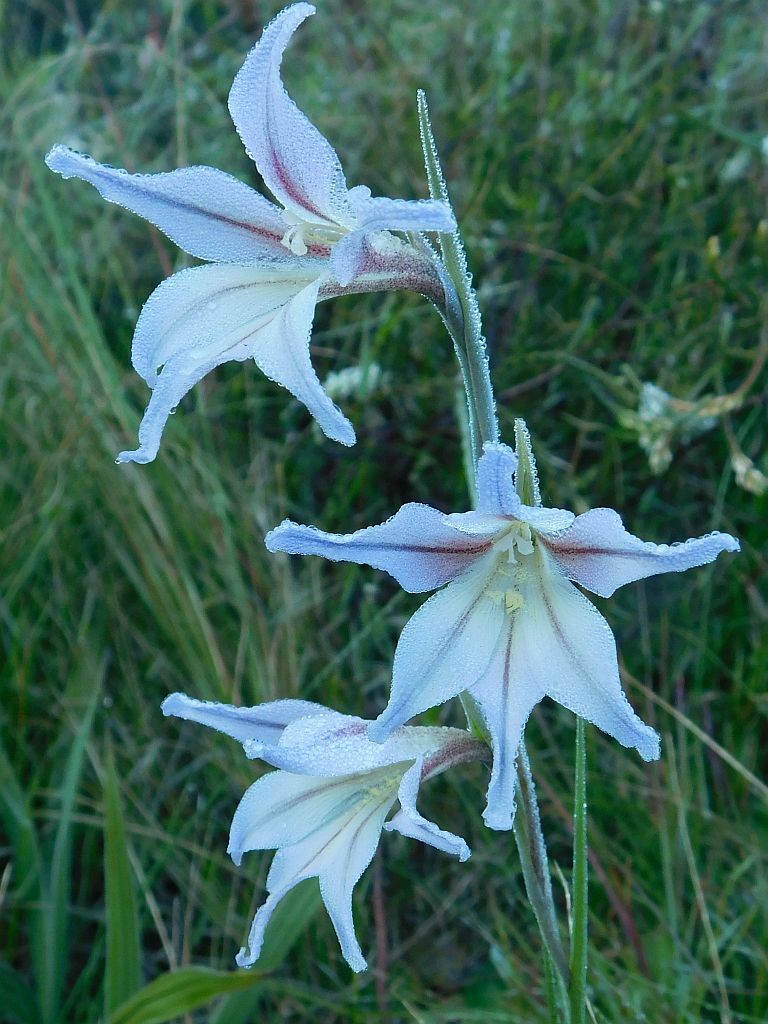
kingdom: Plantae
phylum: Tracheophyta
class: Liliopsida
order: Asparagales
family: Iridaceae
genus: Gladiolus
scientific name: Gladiolus liliaceus
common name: Large brown afrikaner
